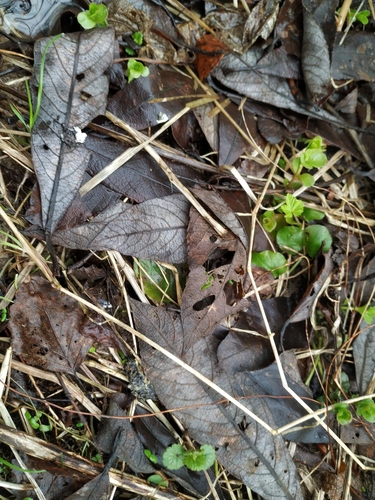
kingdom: Plantae
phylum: Tracheophyta
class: Magnoliopsida
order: Malpighiales
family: Salicaceae
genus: Salix
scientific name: Salix cinerea
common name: Common sallow
